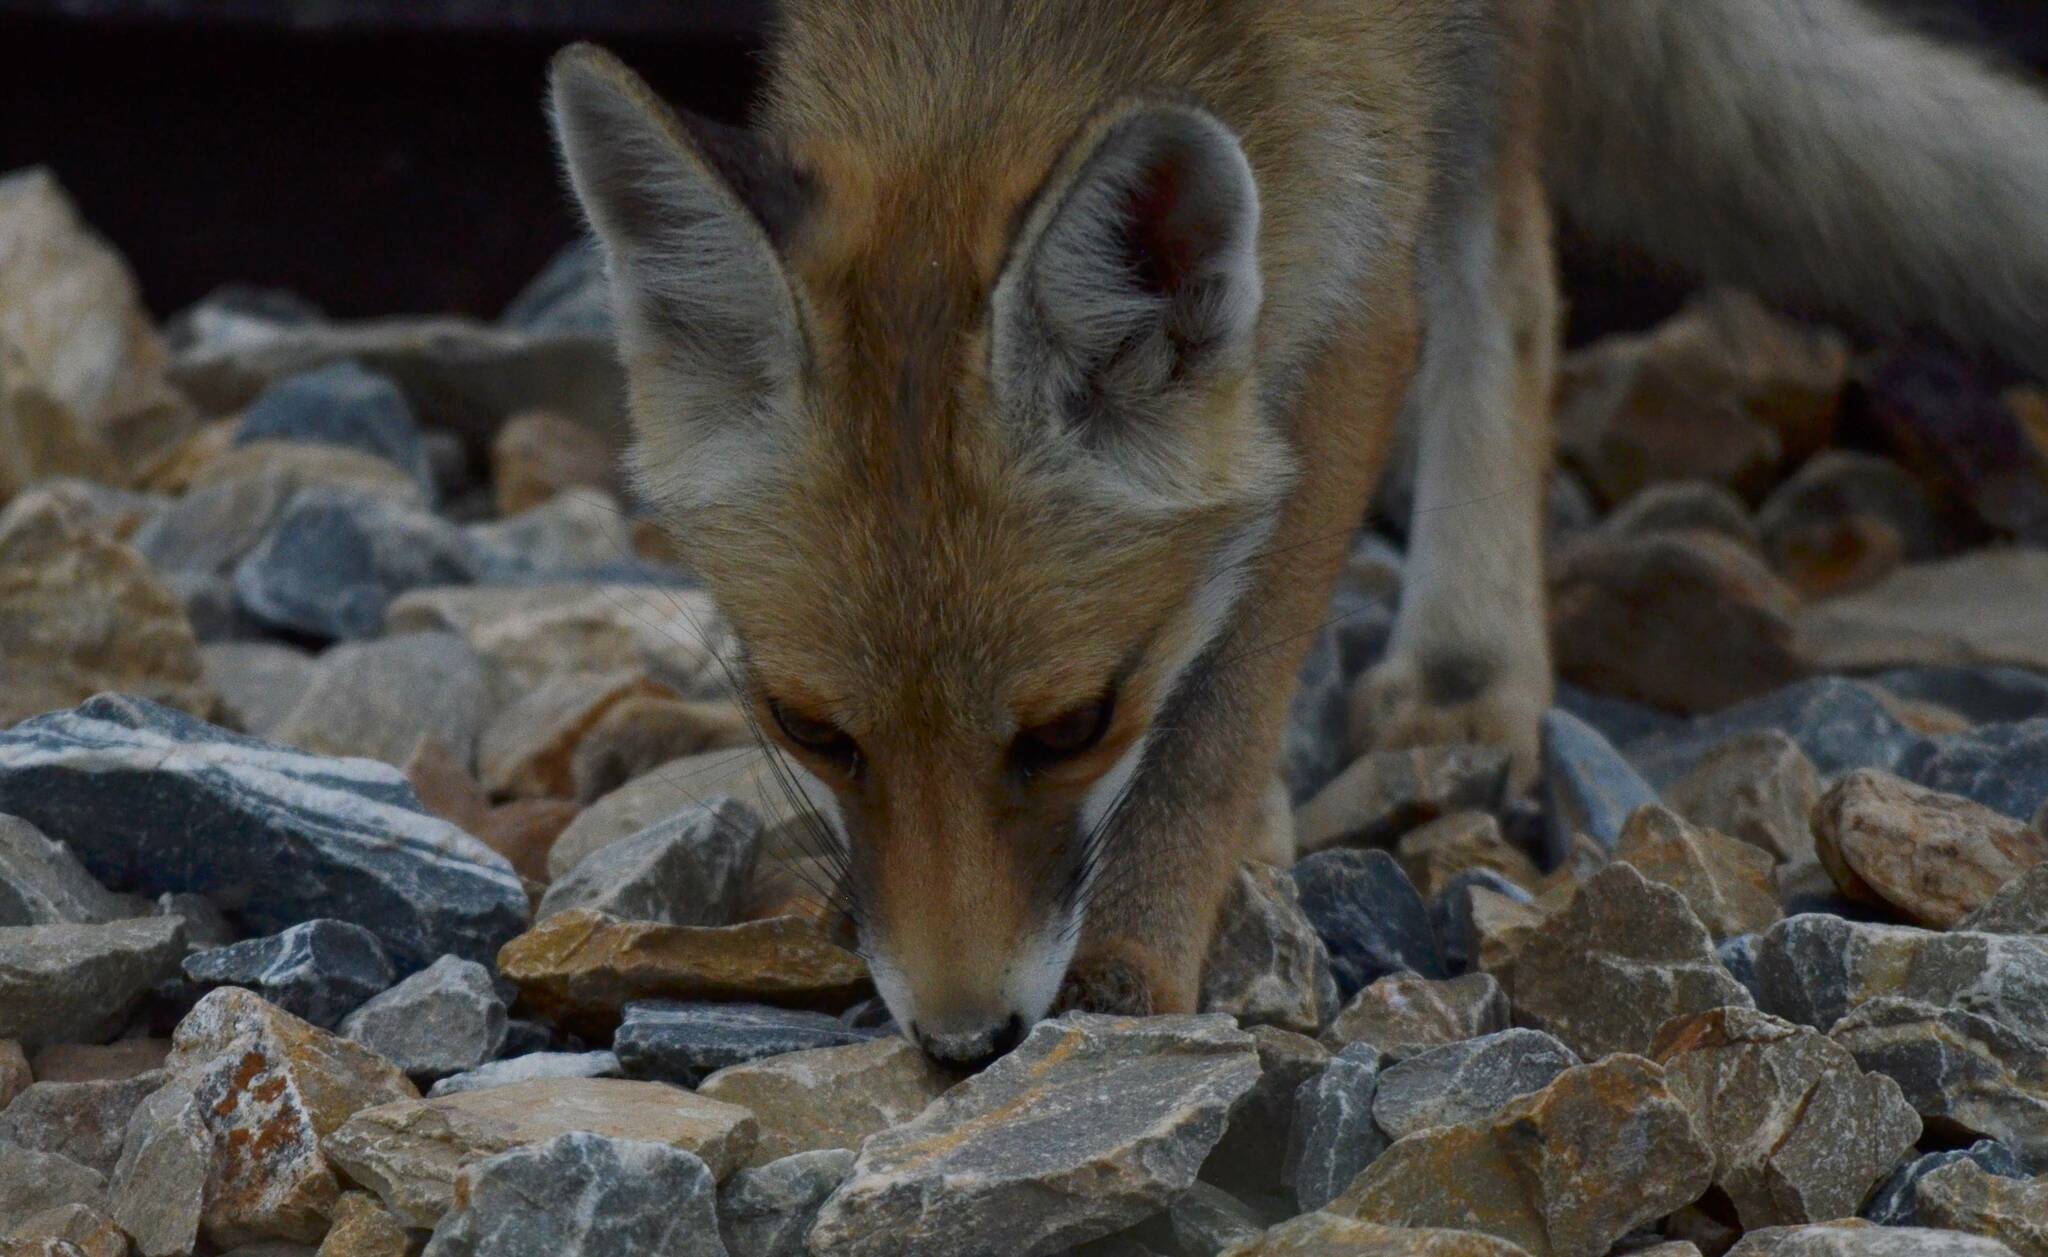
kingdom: Animalia
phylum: Chordata
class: Mammalia
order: Carnivora
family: Canidae
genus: Vulpes
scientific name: Vulpes vulpes
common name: Red fox
